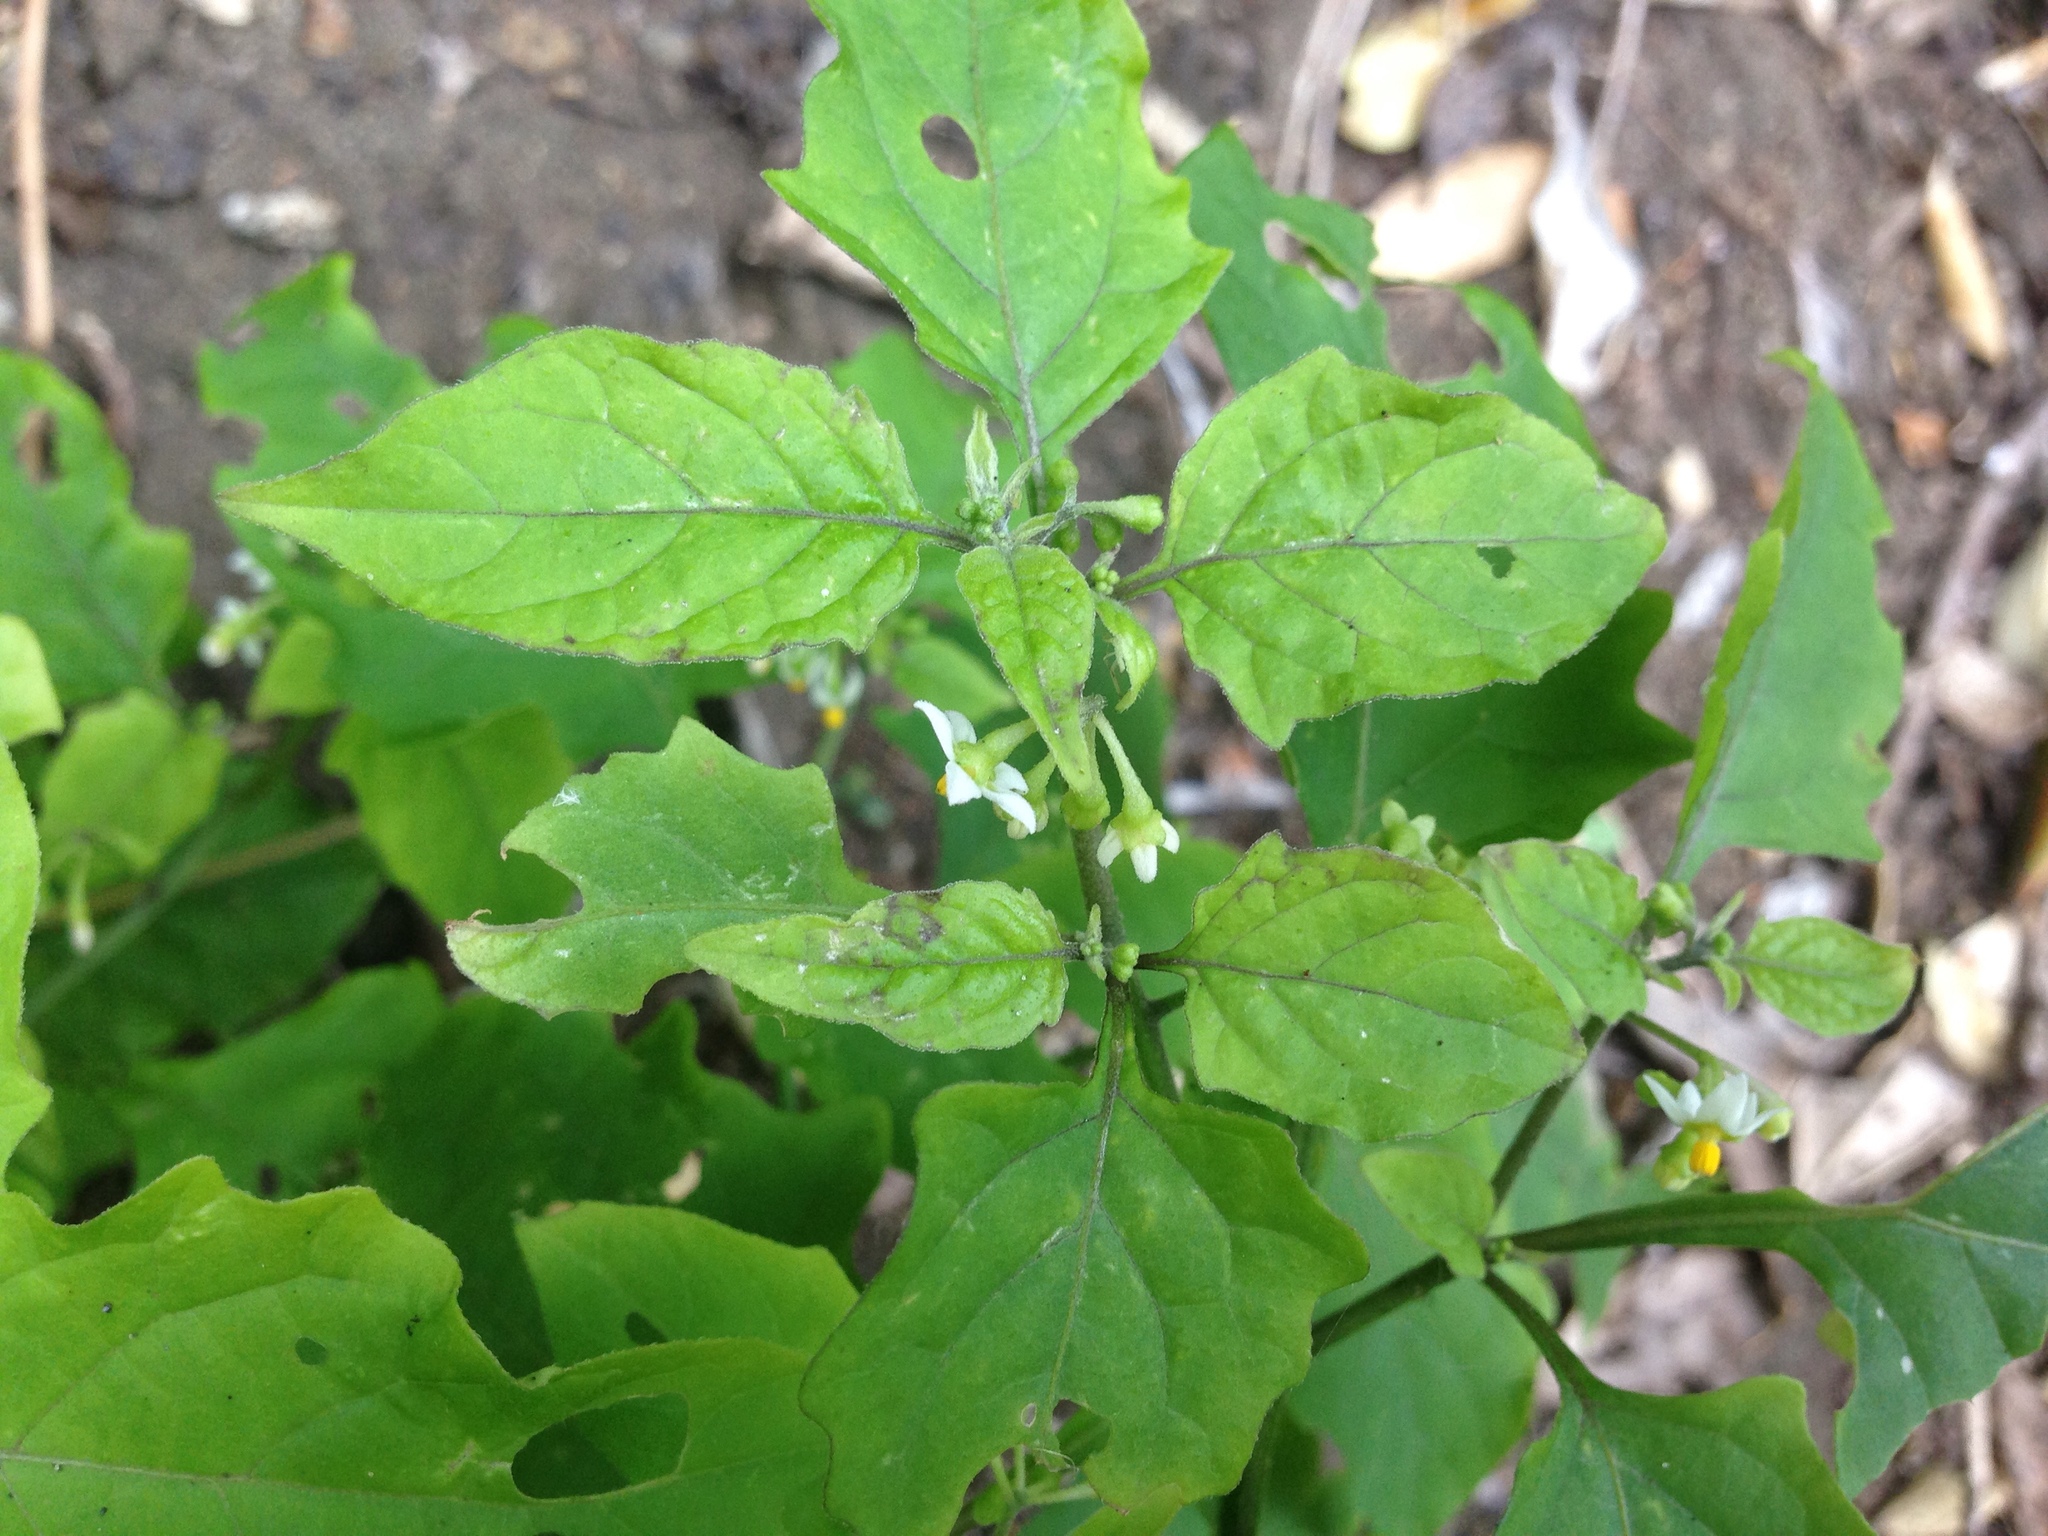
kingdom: Plantae
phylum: Tracheophyta
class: Magnoliopsida
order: Solanales
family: Solanaceae
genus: Solanum
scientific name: Solanum nigrum
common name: Black nightshade
